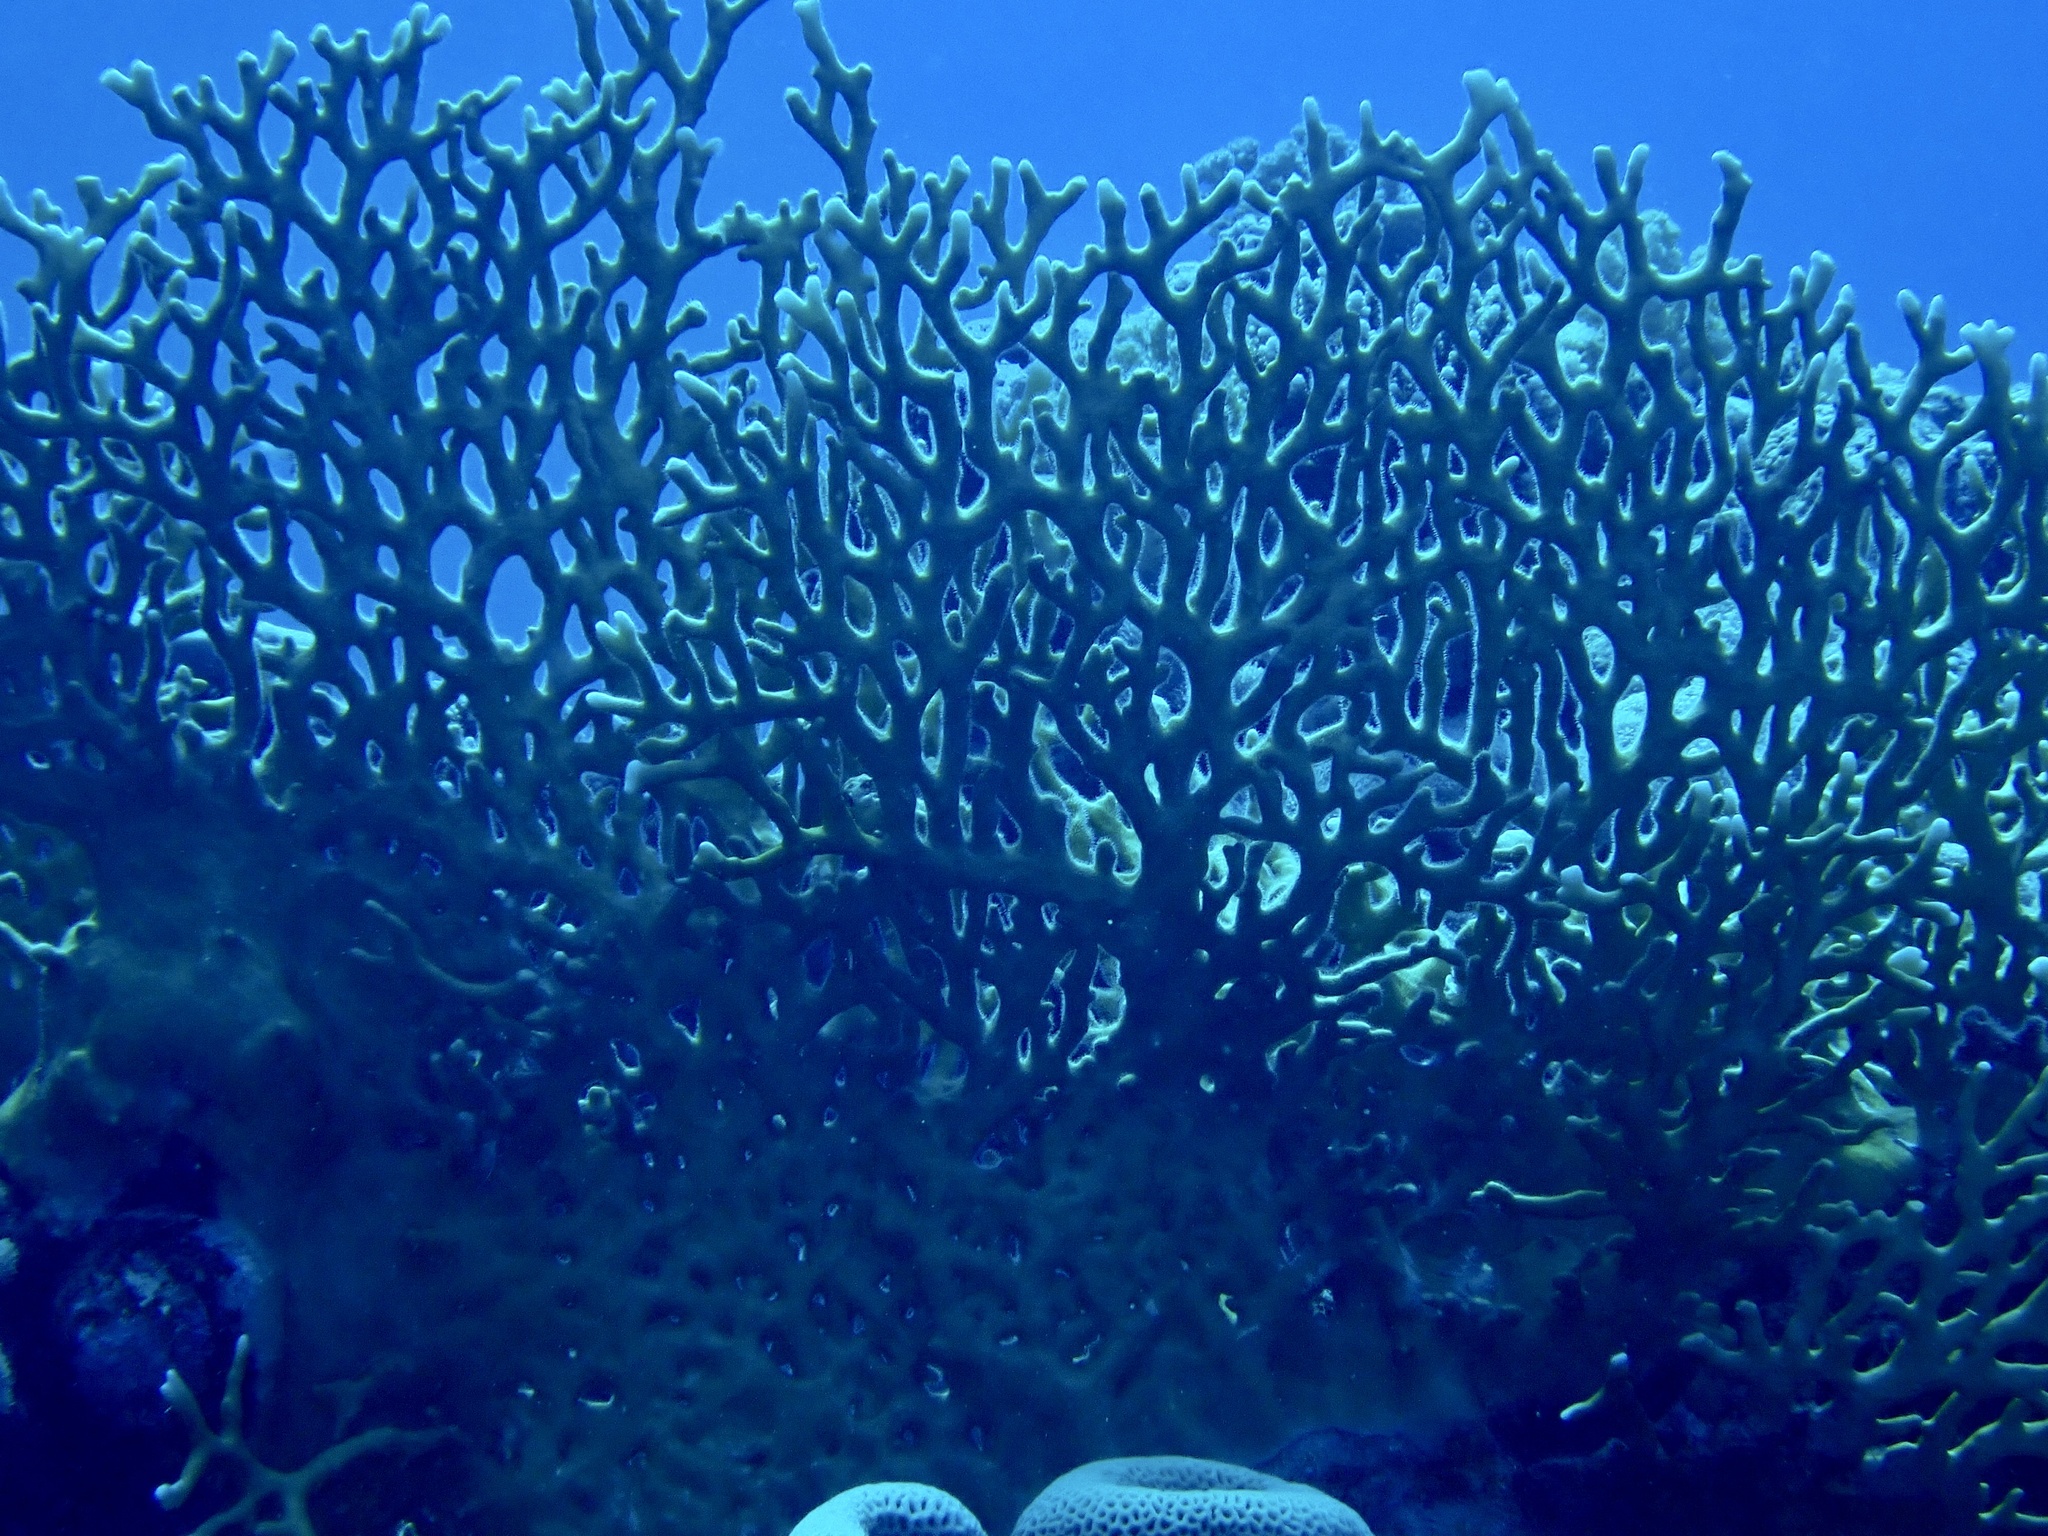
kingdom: Animalia
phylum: Cnidaria
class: Hydrozoa
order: Anthoathecata
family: Milleporidae
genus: Millepora
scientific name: Millepora dichotoma
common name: Ramified fire coral
